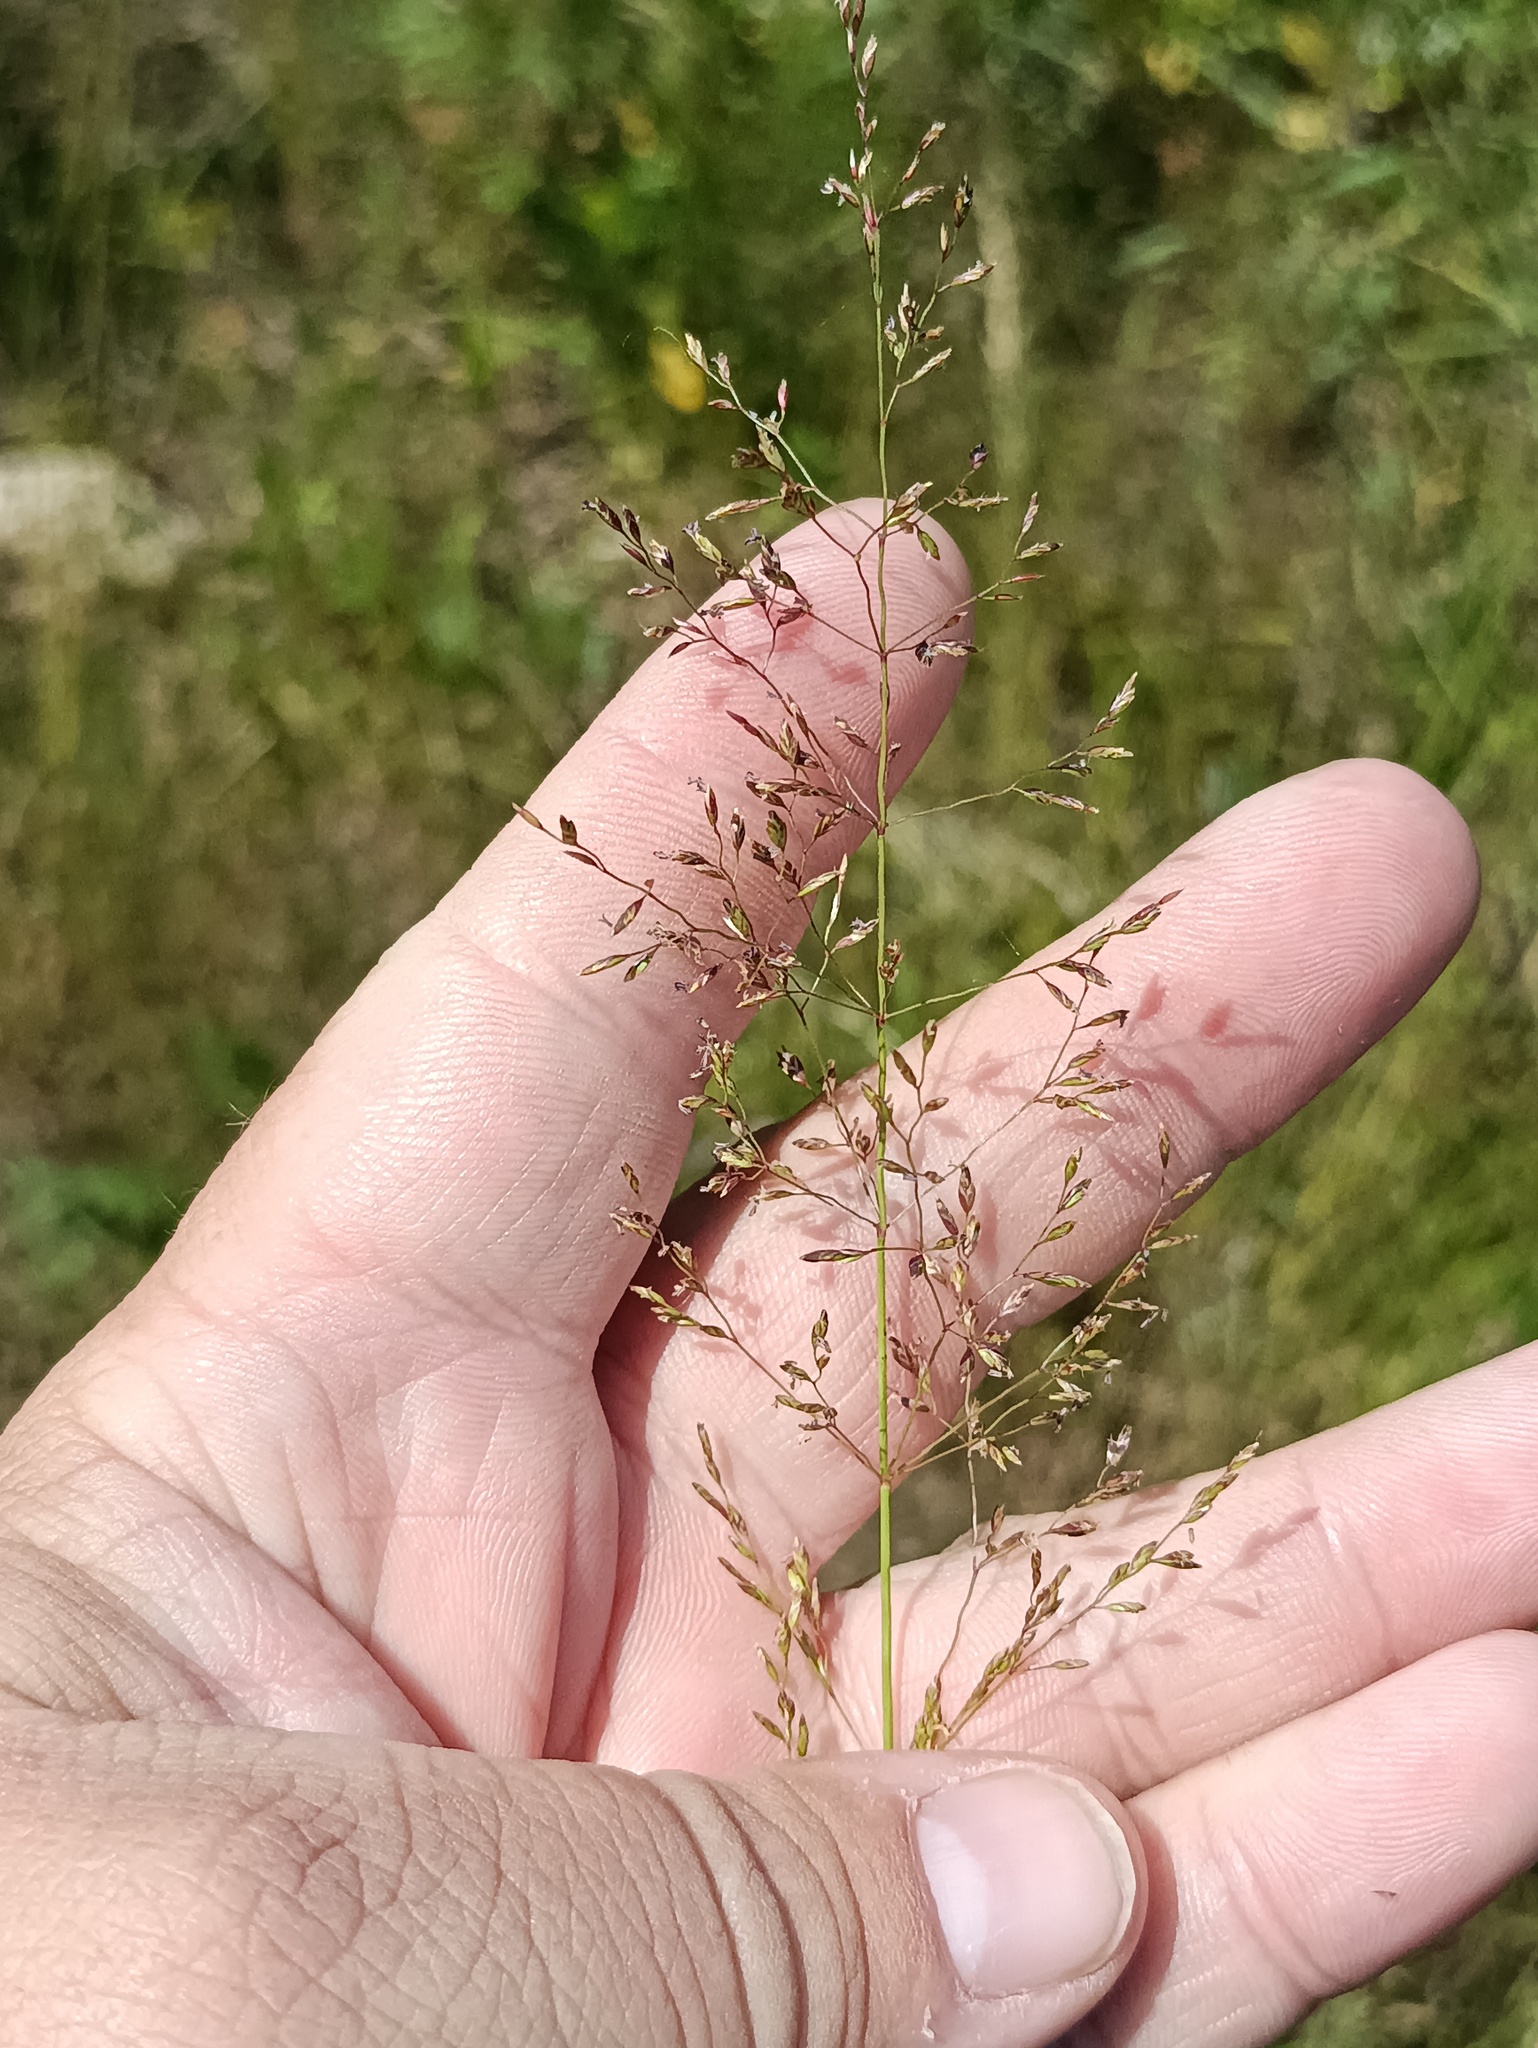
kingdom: Plantae
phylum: Tracheophyta
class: Liliopsida
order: Poales
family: Poaceae
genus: Agrostis
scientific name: Agrostis gigantea
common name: Black bent
